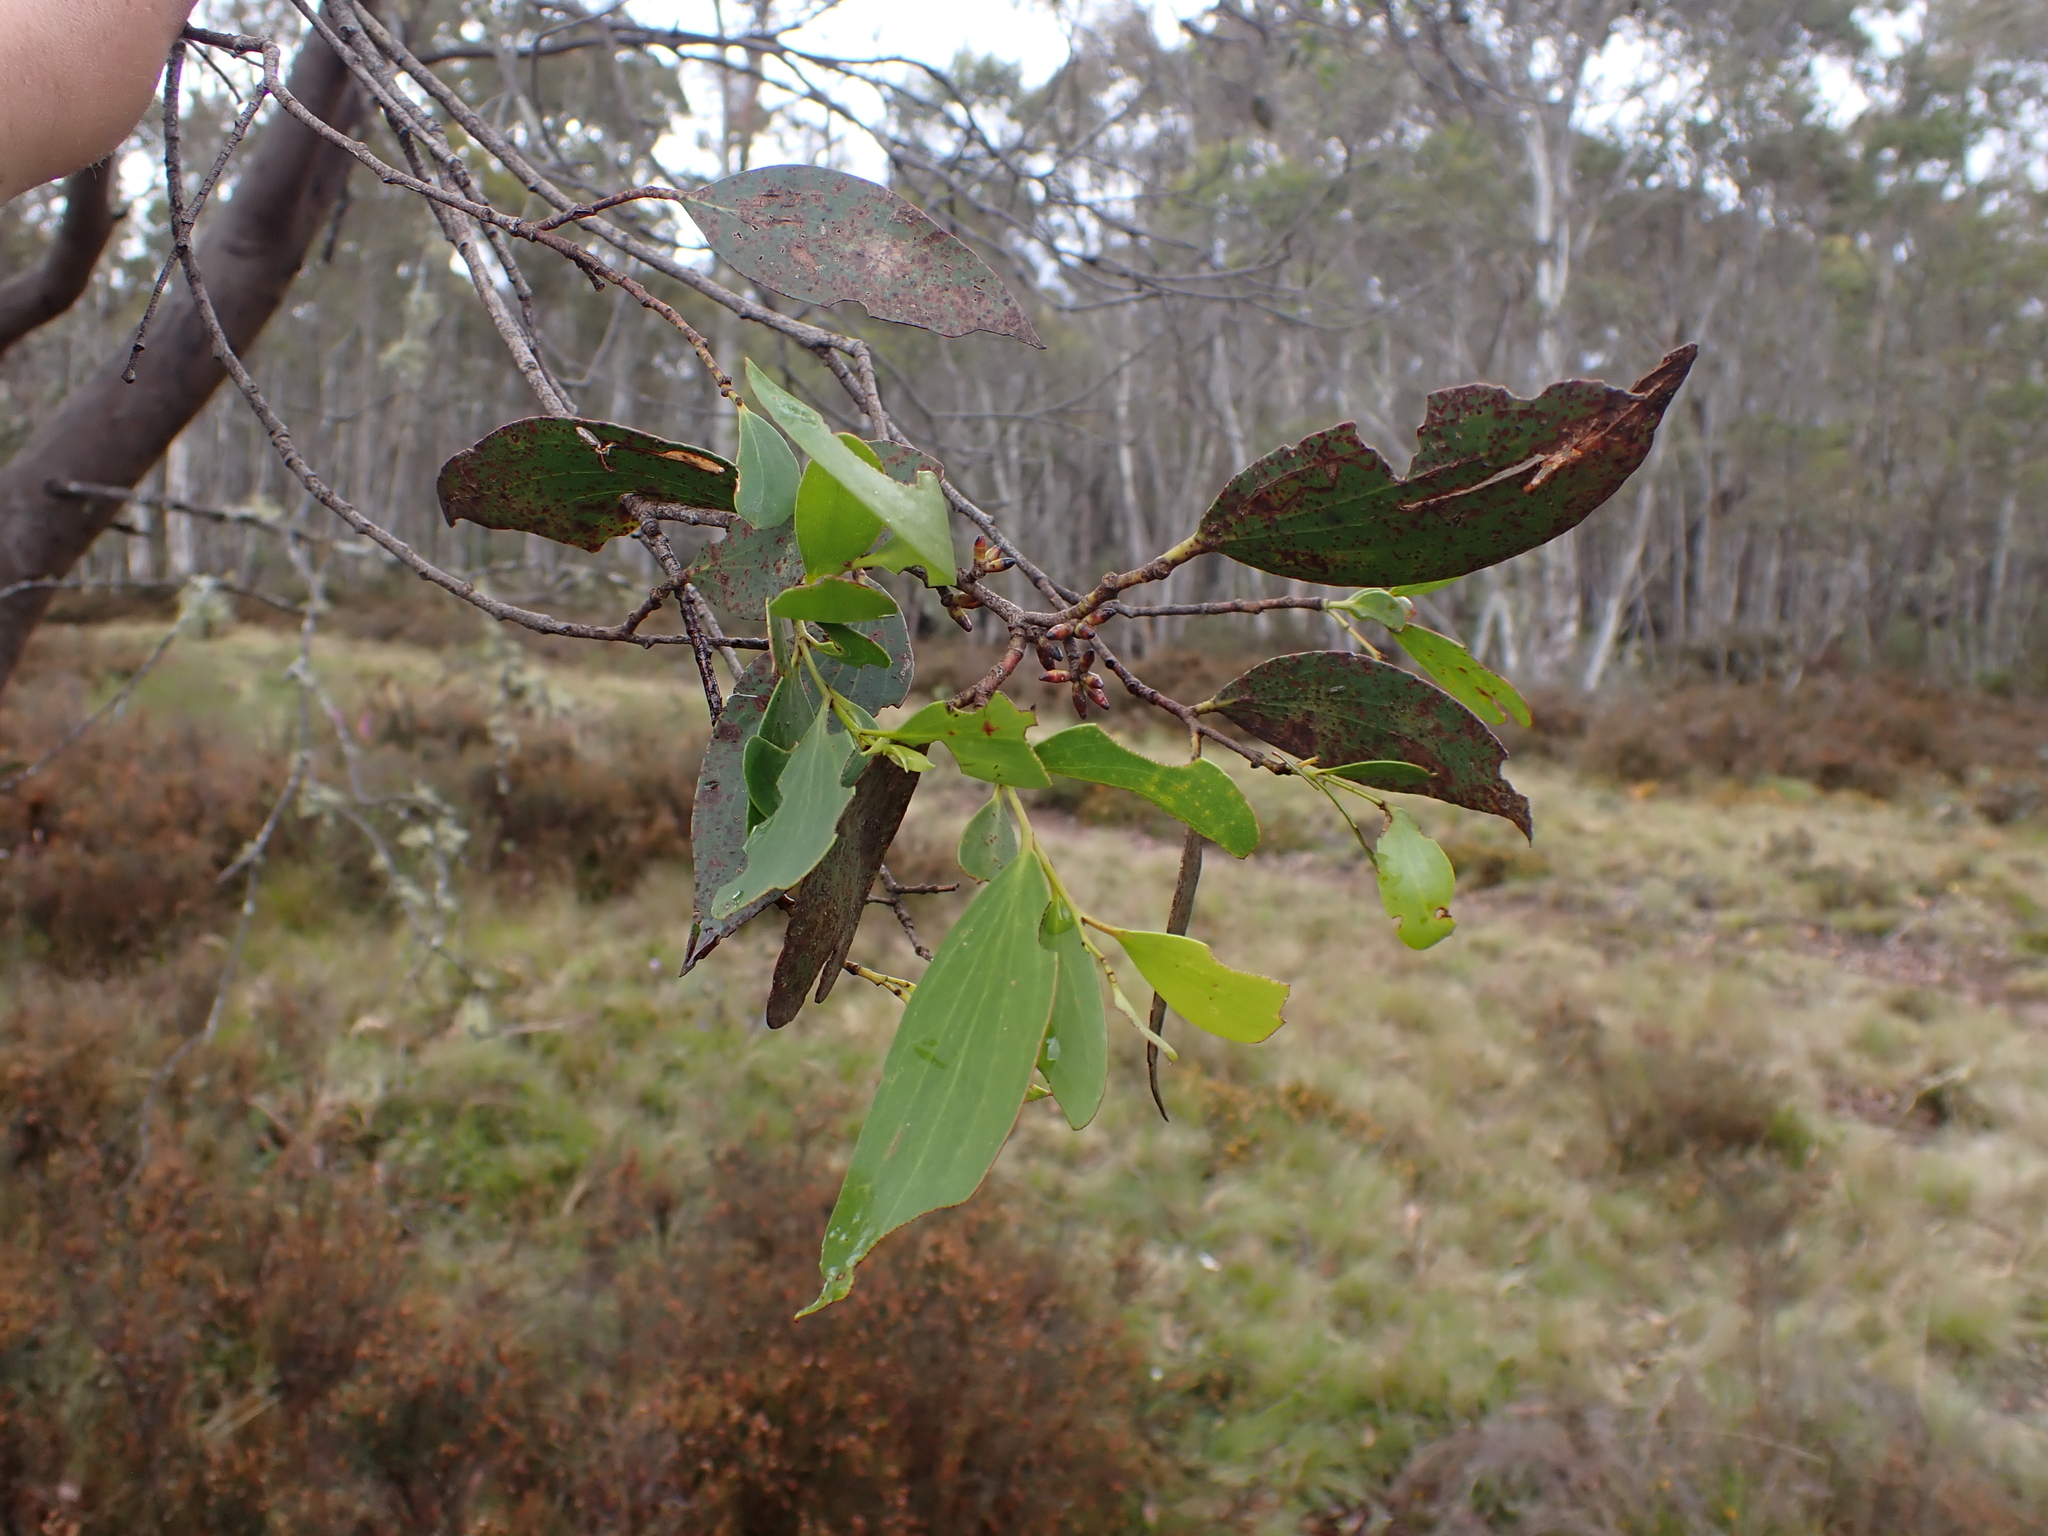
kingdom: Plantae
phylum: Tracheophyta
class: Magnoliopsida
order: Myrtales
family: Myrtaceae
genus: Eucalyptus
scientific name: Eucalyptus stellulata
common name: Black sallee
